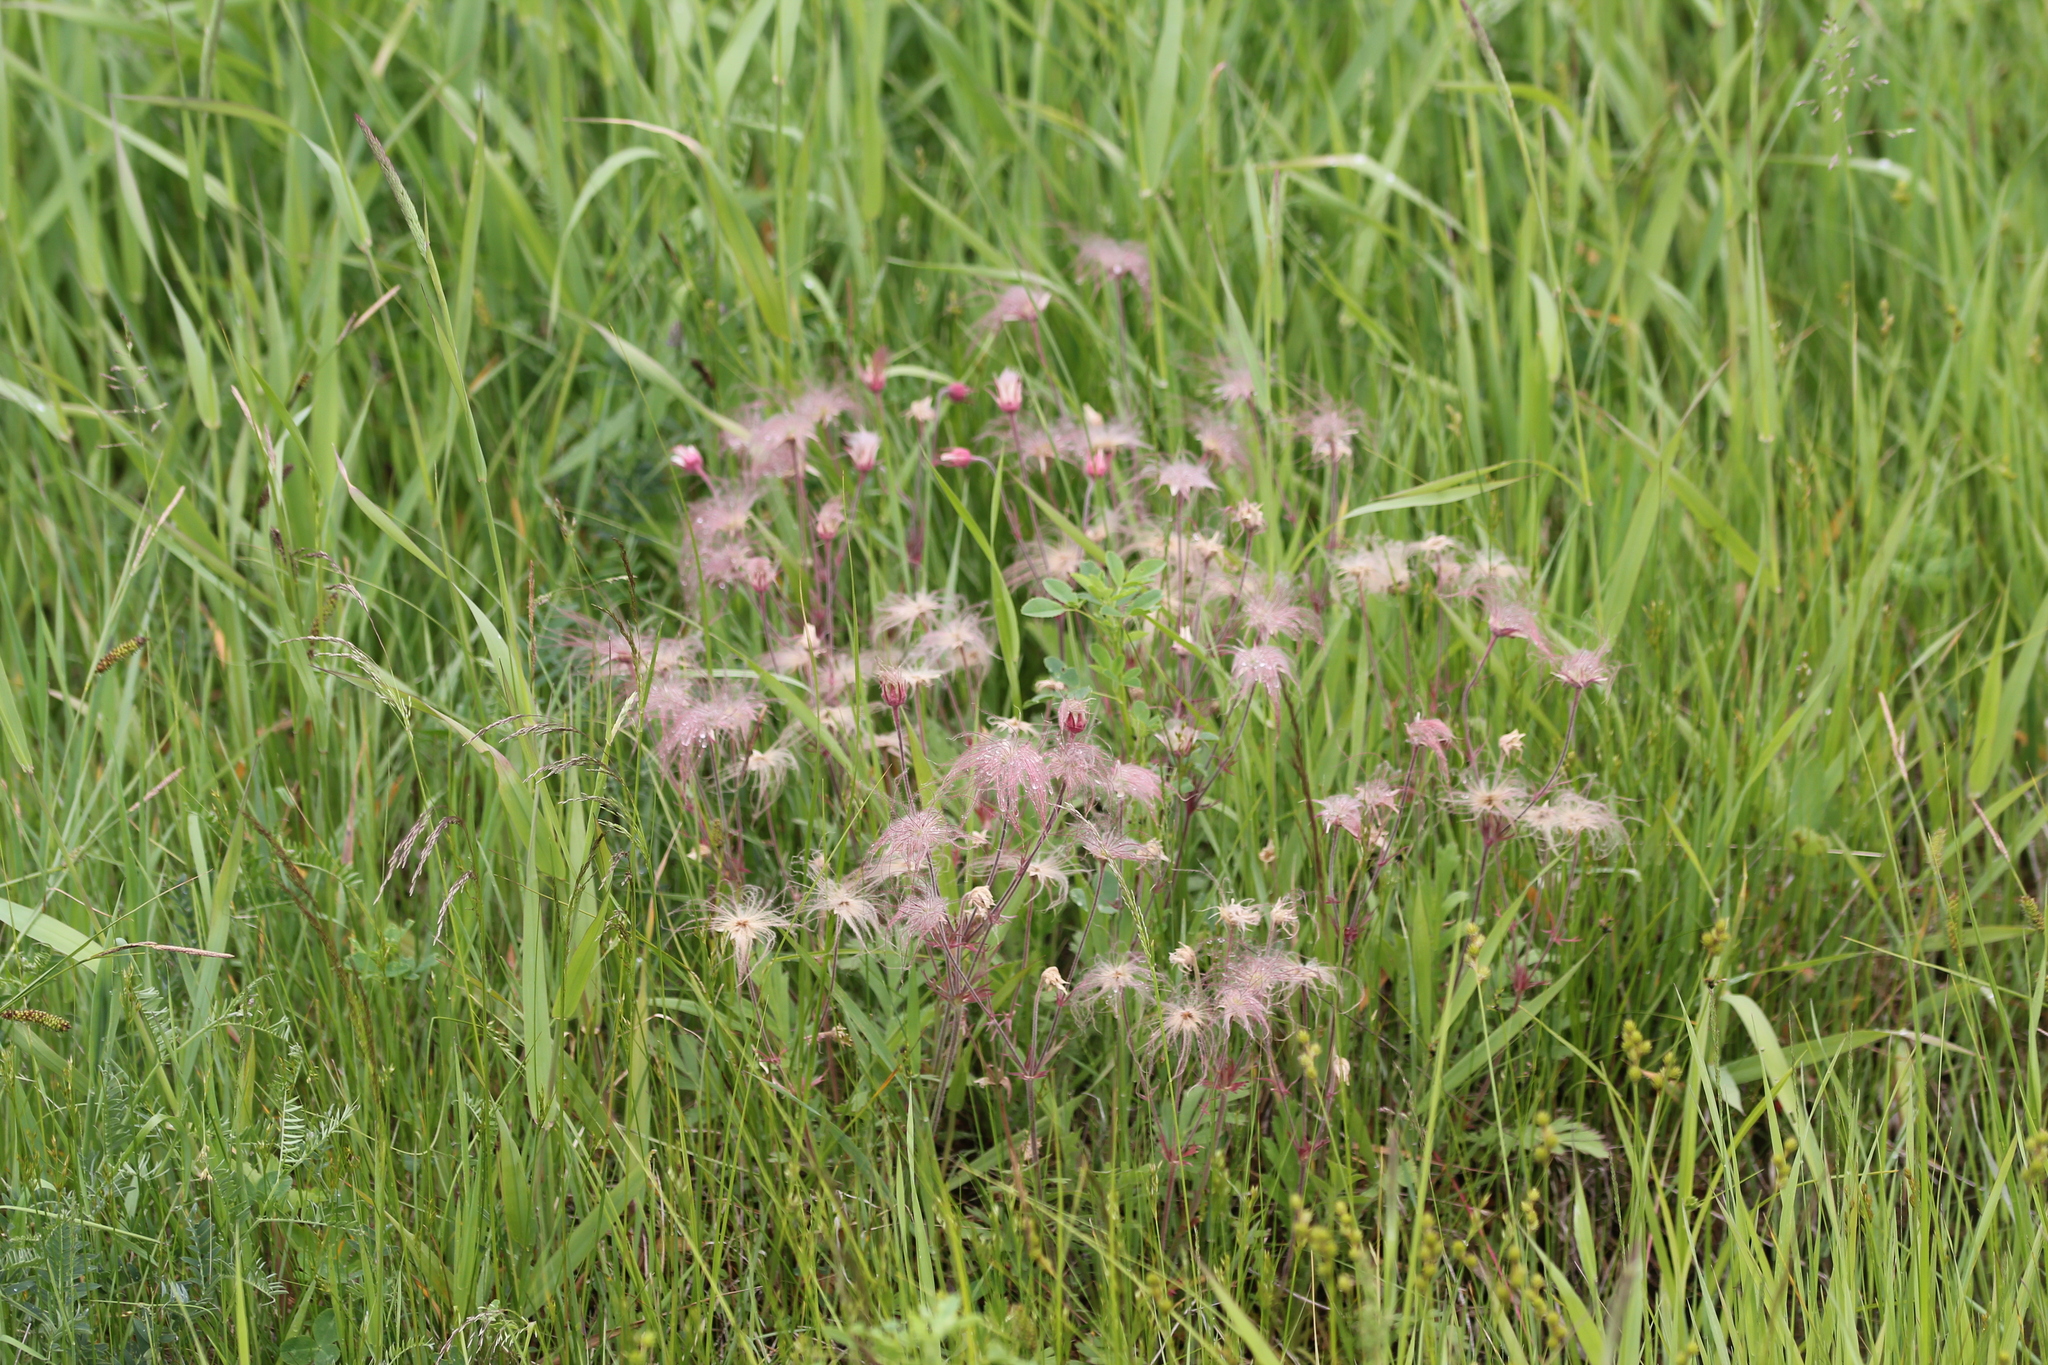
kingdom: Plantae
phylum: Tracheophyta
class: Magnoliopsida
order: Rosales
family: Rosaceae
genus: Geum
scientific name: Geum triflorum
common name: Old man's whiskers
